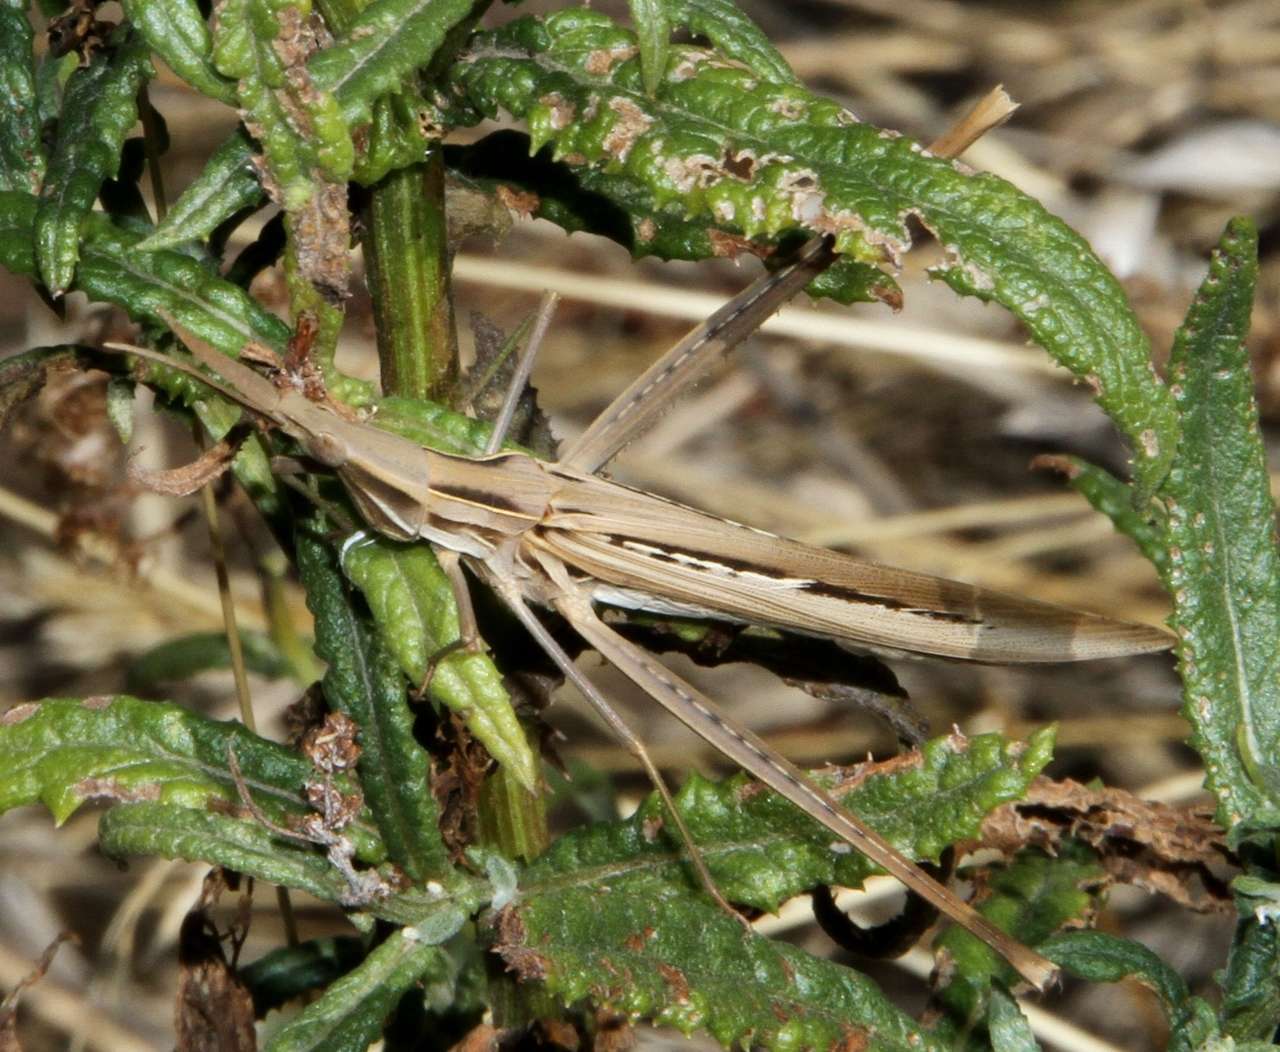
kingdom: Animalia
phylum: Arthropoda
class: Insecta
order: Orthoptera
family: Acrididae
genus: Acrida
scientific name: Acrida conica
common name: Giant green slantface
